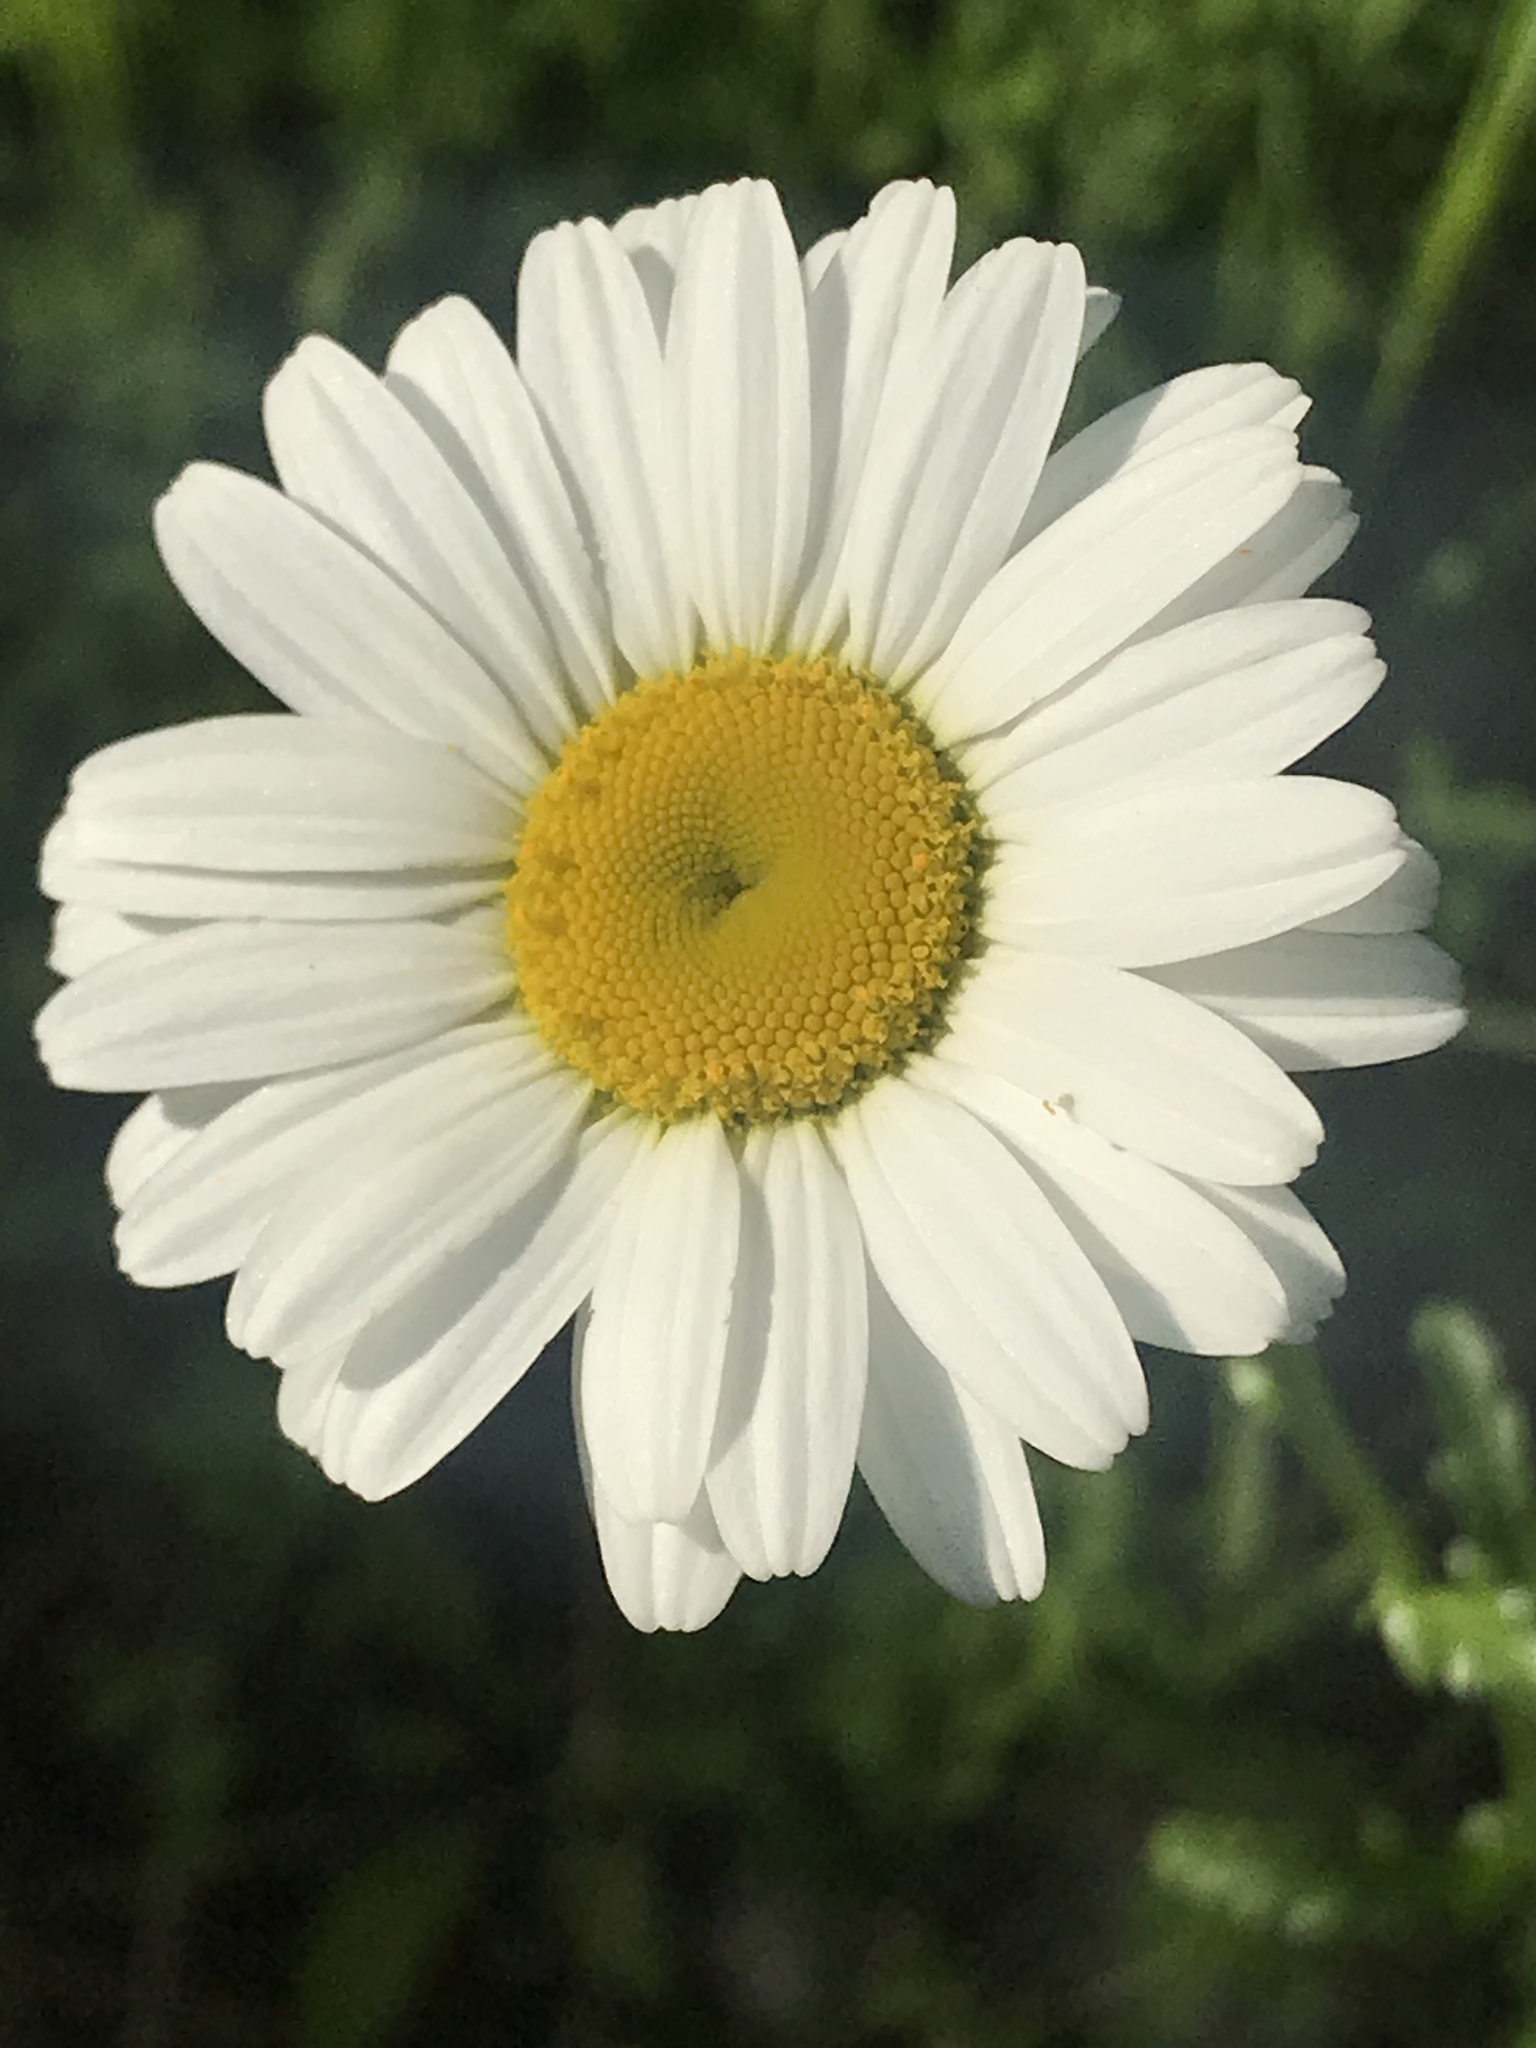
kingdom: Plantae
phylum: Tracheophyta
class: Magnoliopsida
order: Asterales
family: Asteraceae
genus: Leucanthemum
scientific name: Leucanthemum vulgare
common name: Oxeye daisy
